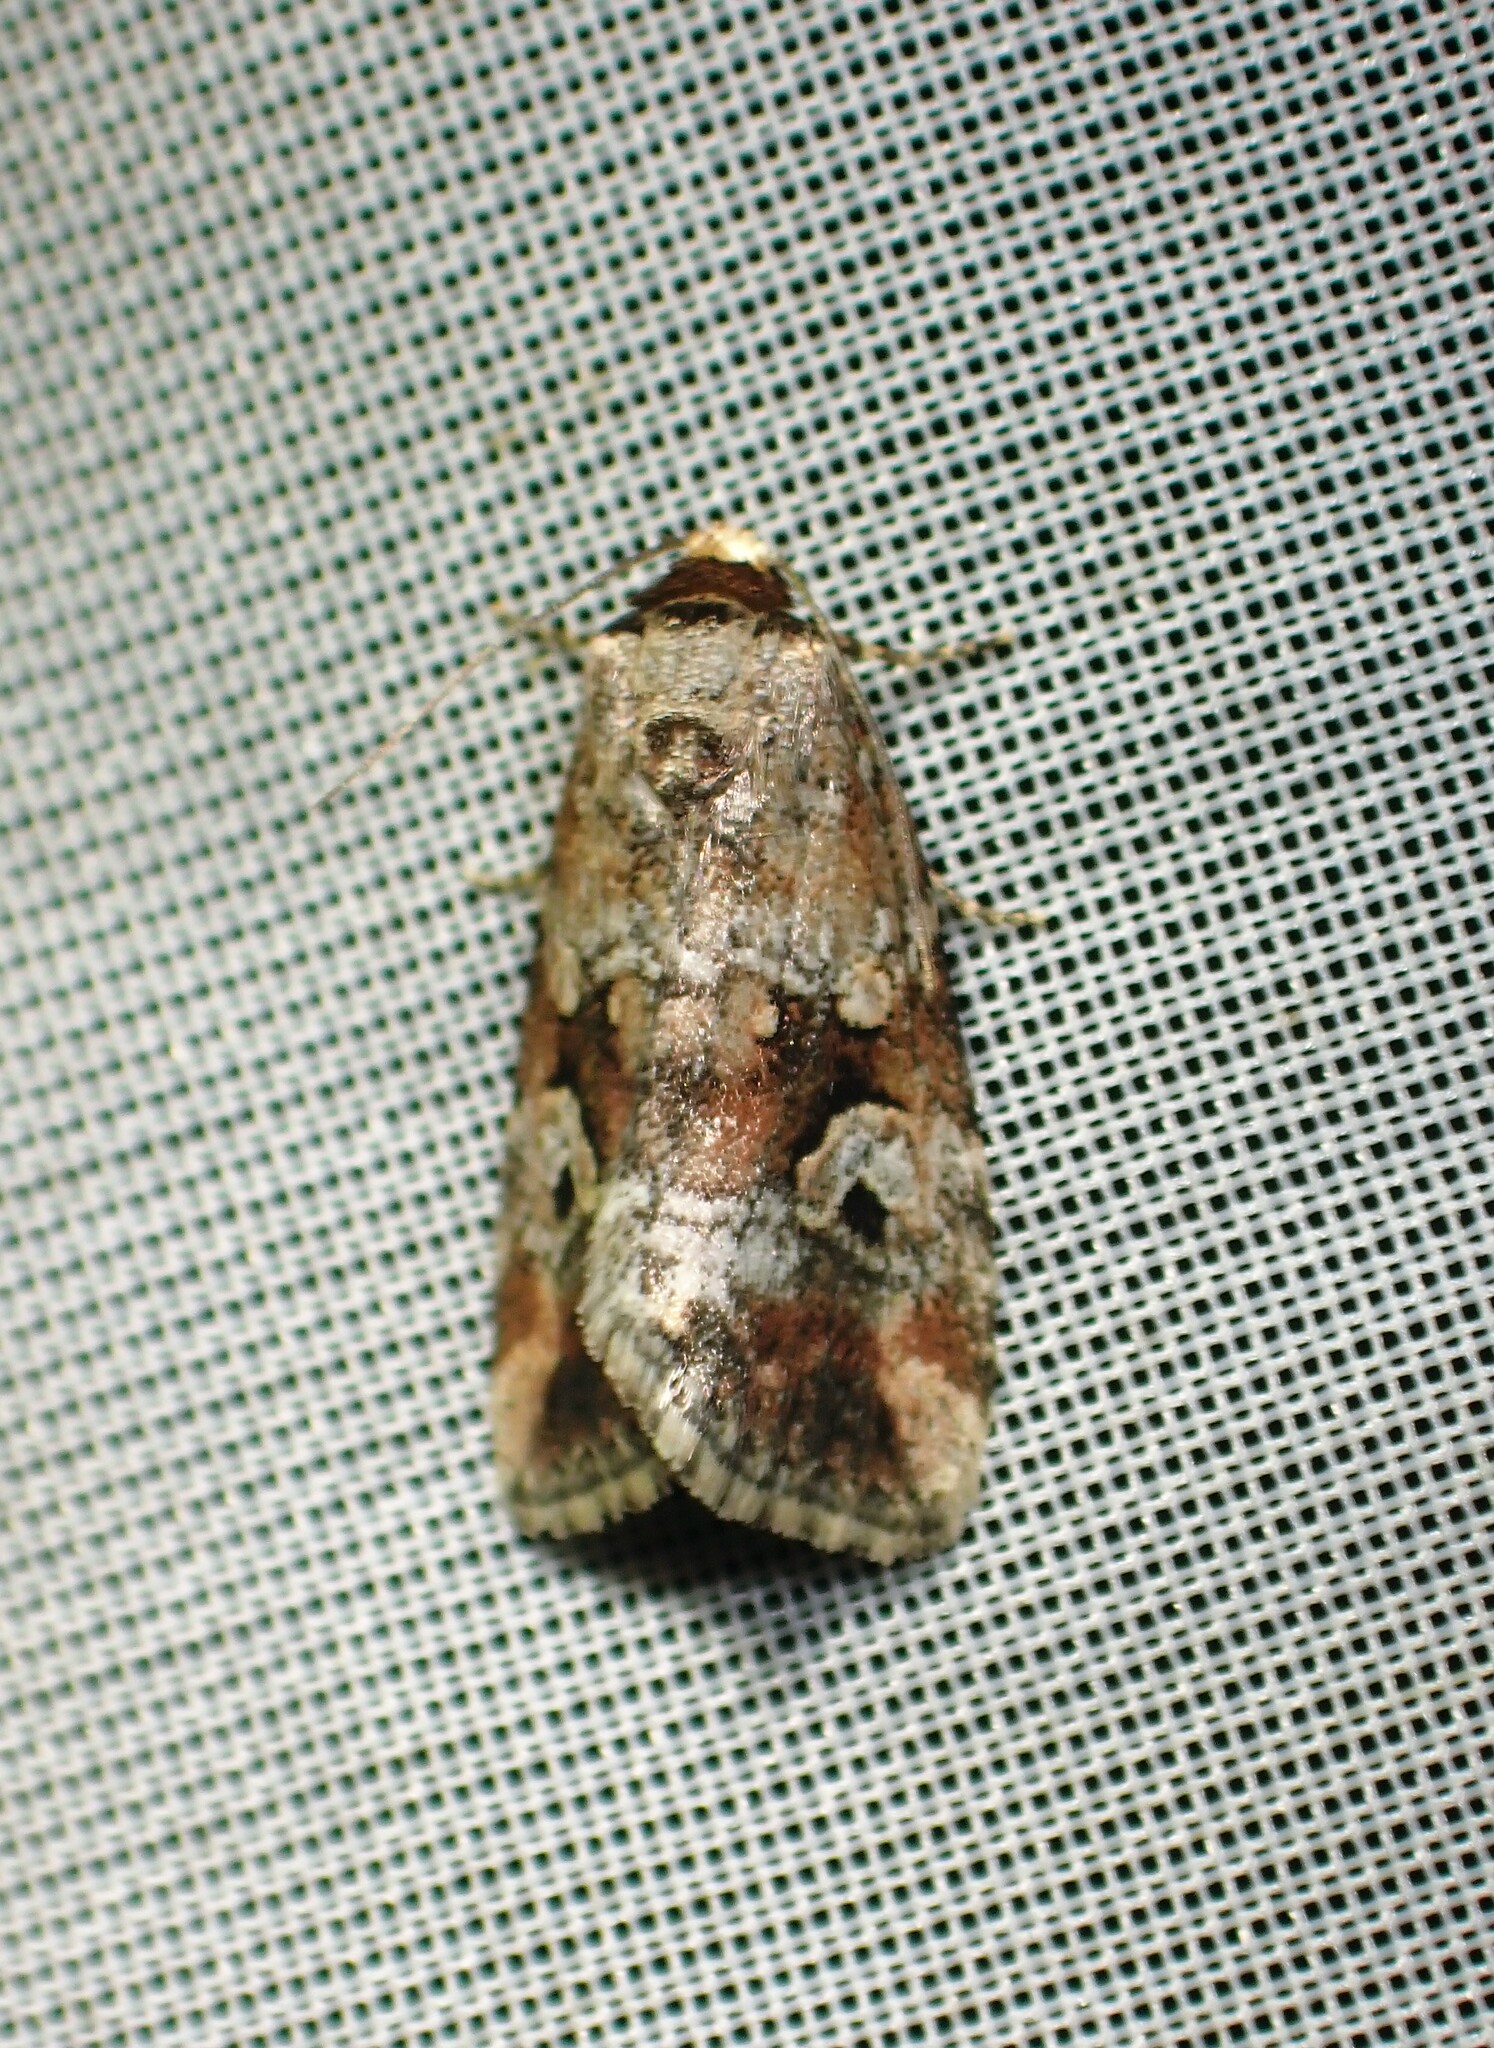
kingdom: Animalia
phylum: Arthropoda
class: Insecta
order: Lepidoptera
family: Noctuidae
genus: Elaphria
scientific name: Elaphria alapallida
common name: Pale-winged midget
